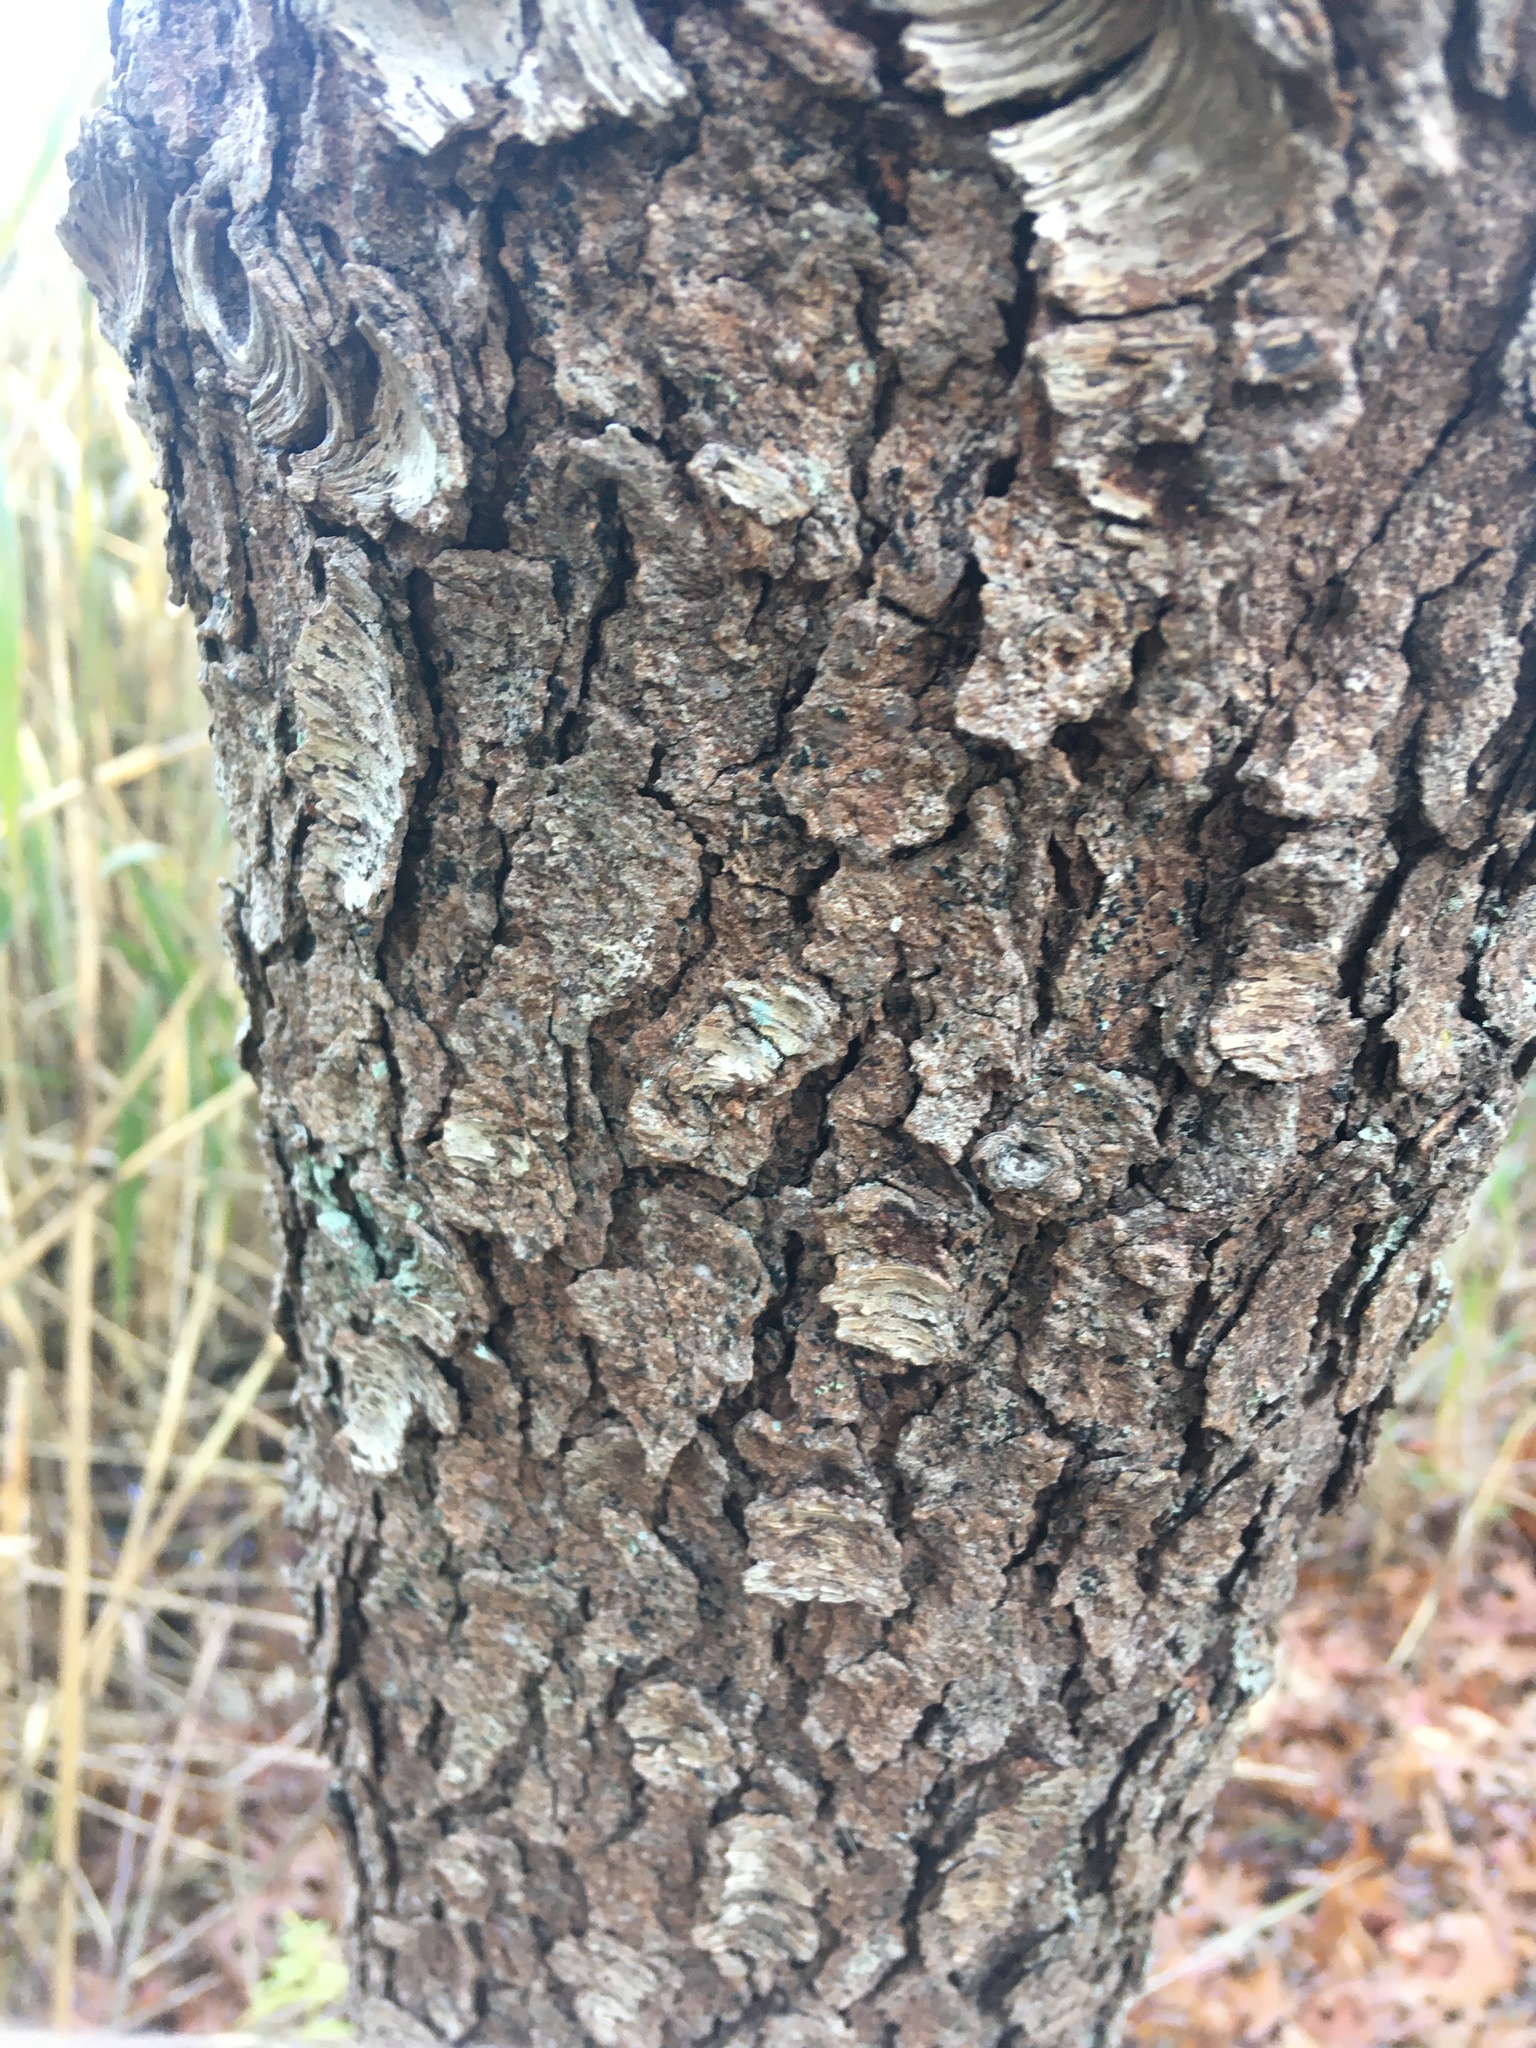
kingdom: Plantae
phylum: Tracheophyta
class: Magnoliopsida
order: Rosales
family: Rosaceae
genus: Prunus
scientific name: Prunus serotina
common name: Black cherry
